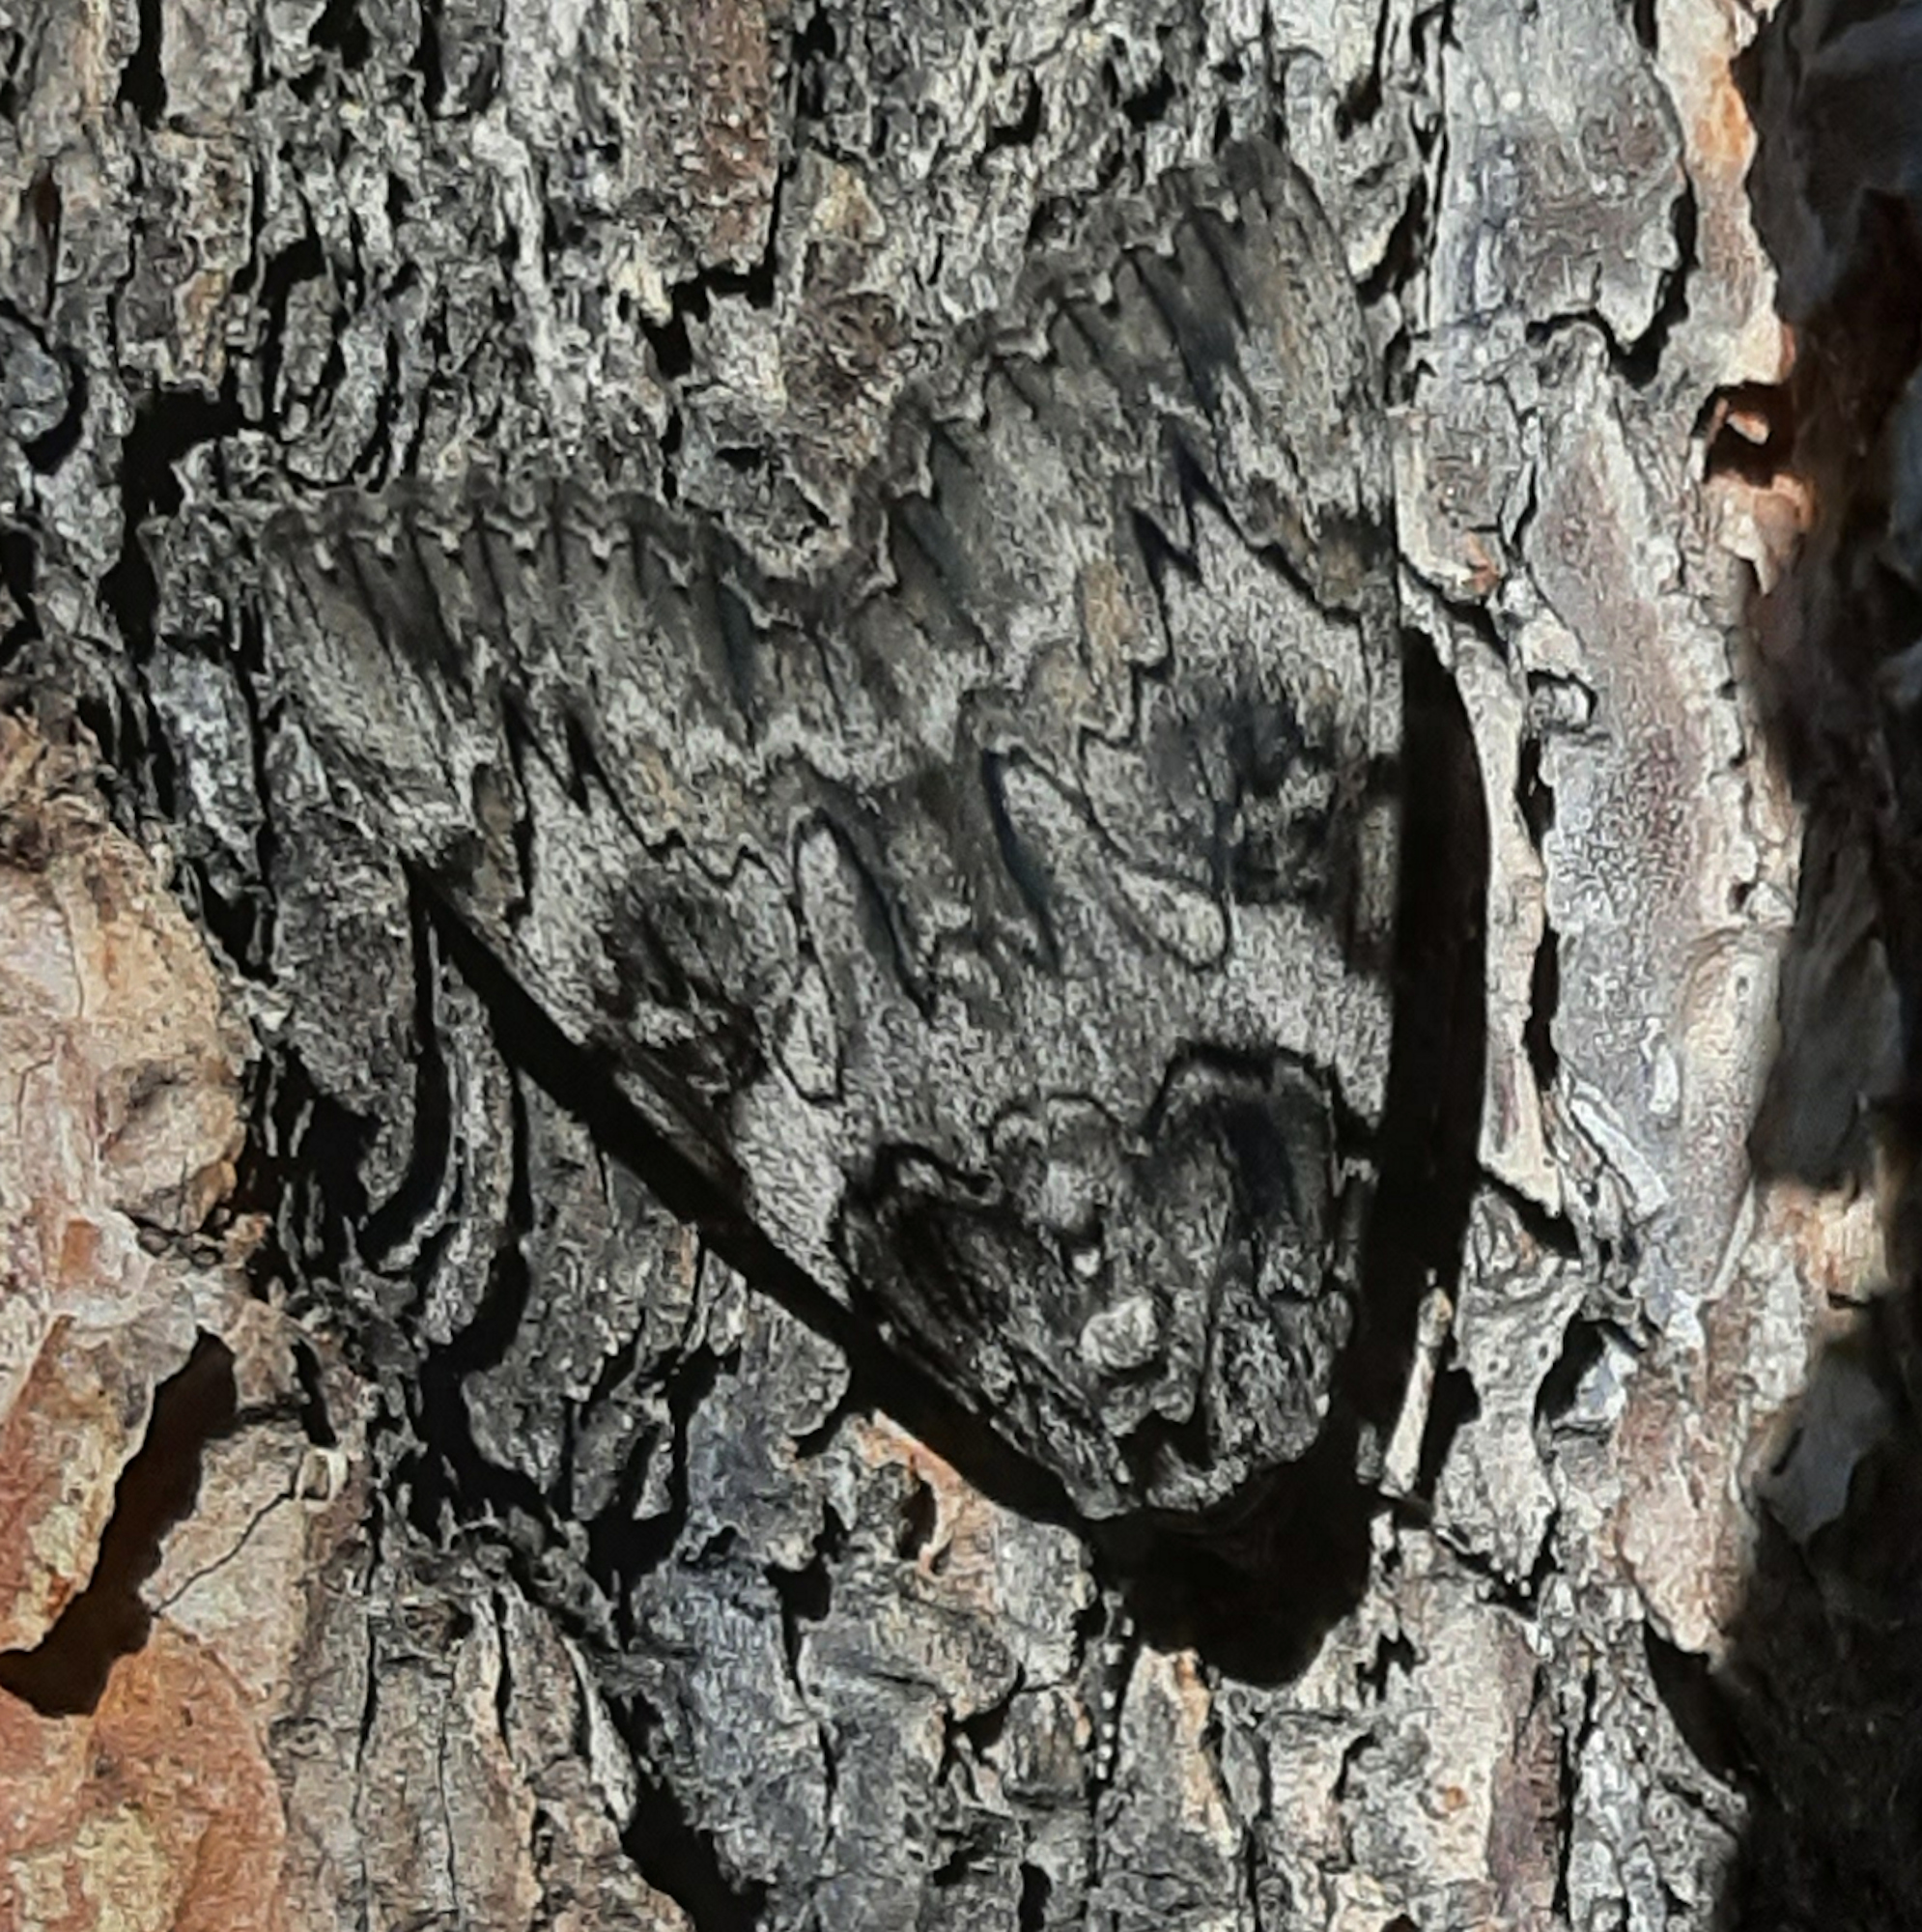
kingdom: Animalia
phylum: Arthropoda
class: Insecta
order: Lepidoptera
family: Erebidae
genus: Catocala
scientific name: Catocala piatrix
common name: The penitent underwing
